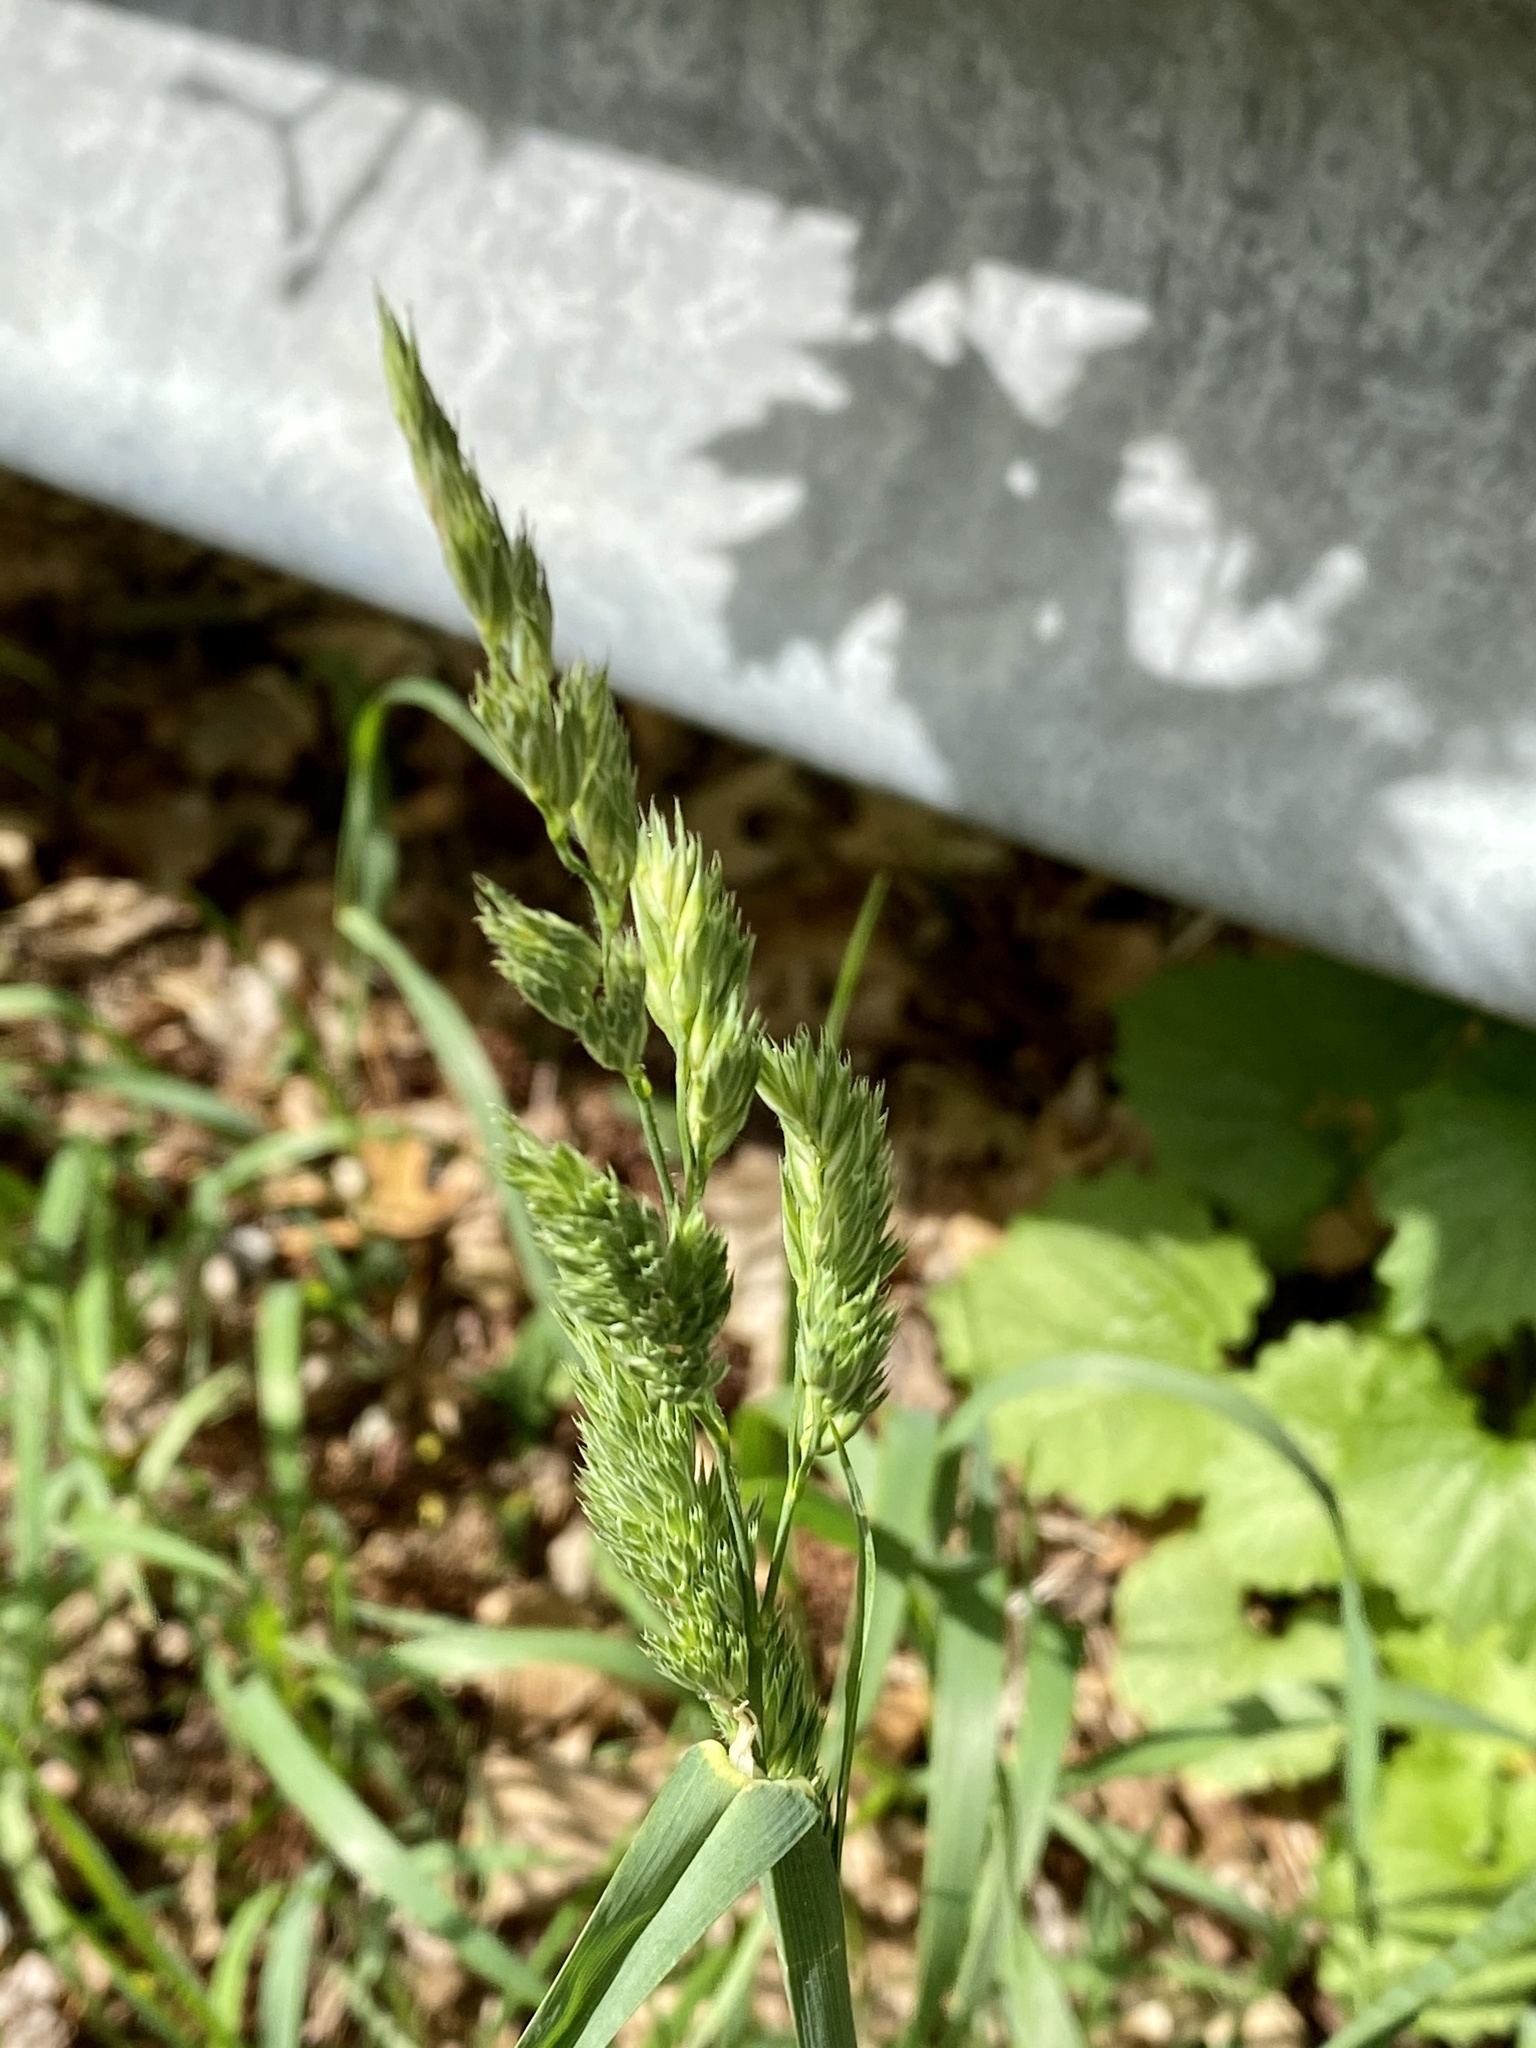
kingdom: Plantae
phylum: Tracheophyta
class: Liliopsida
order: Poales
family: Poaceae
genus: Dactylis
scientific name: Dactylis glomerata
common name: Orchardgrass
